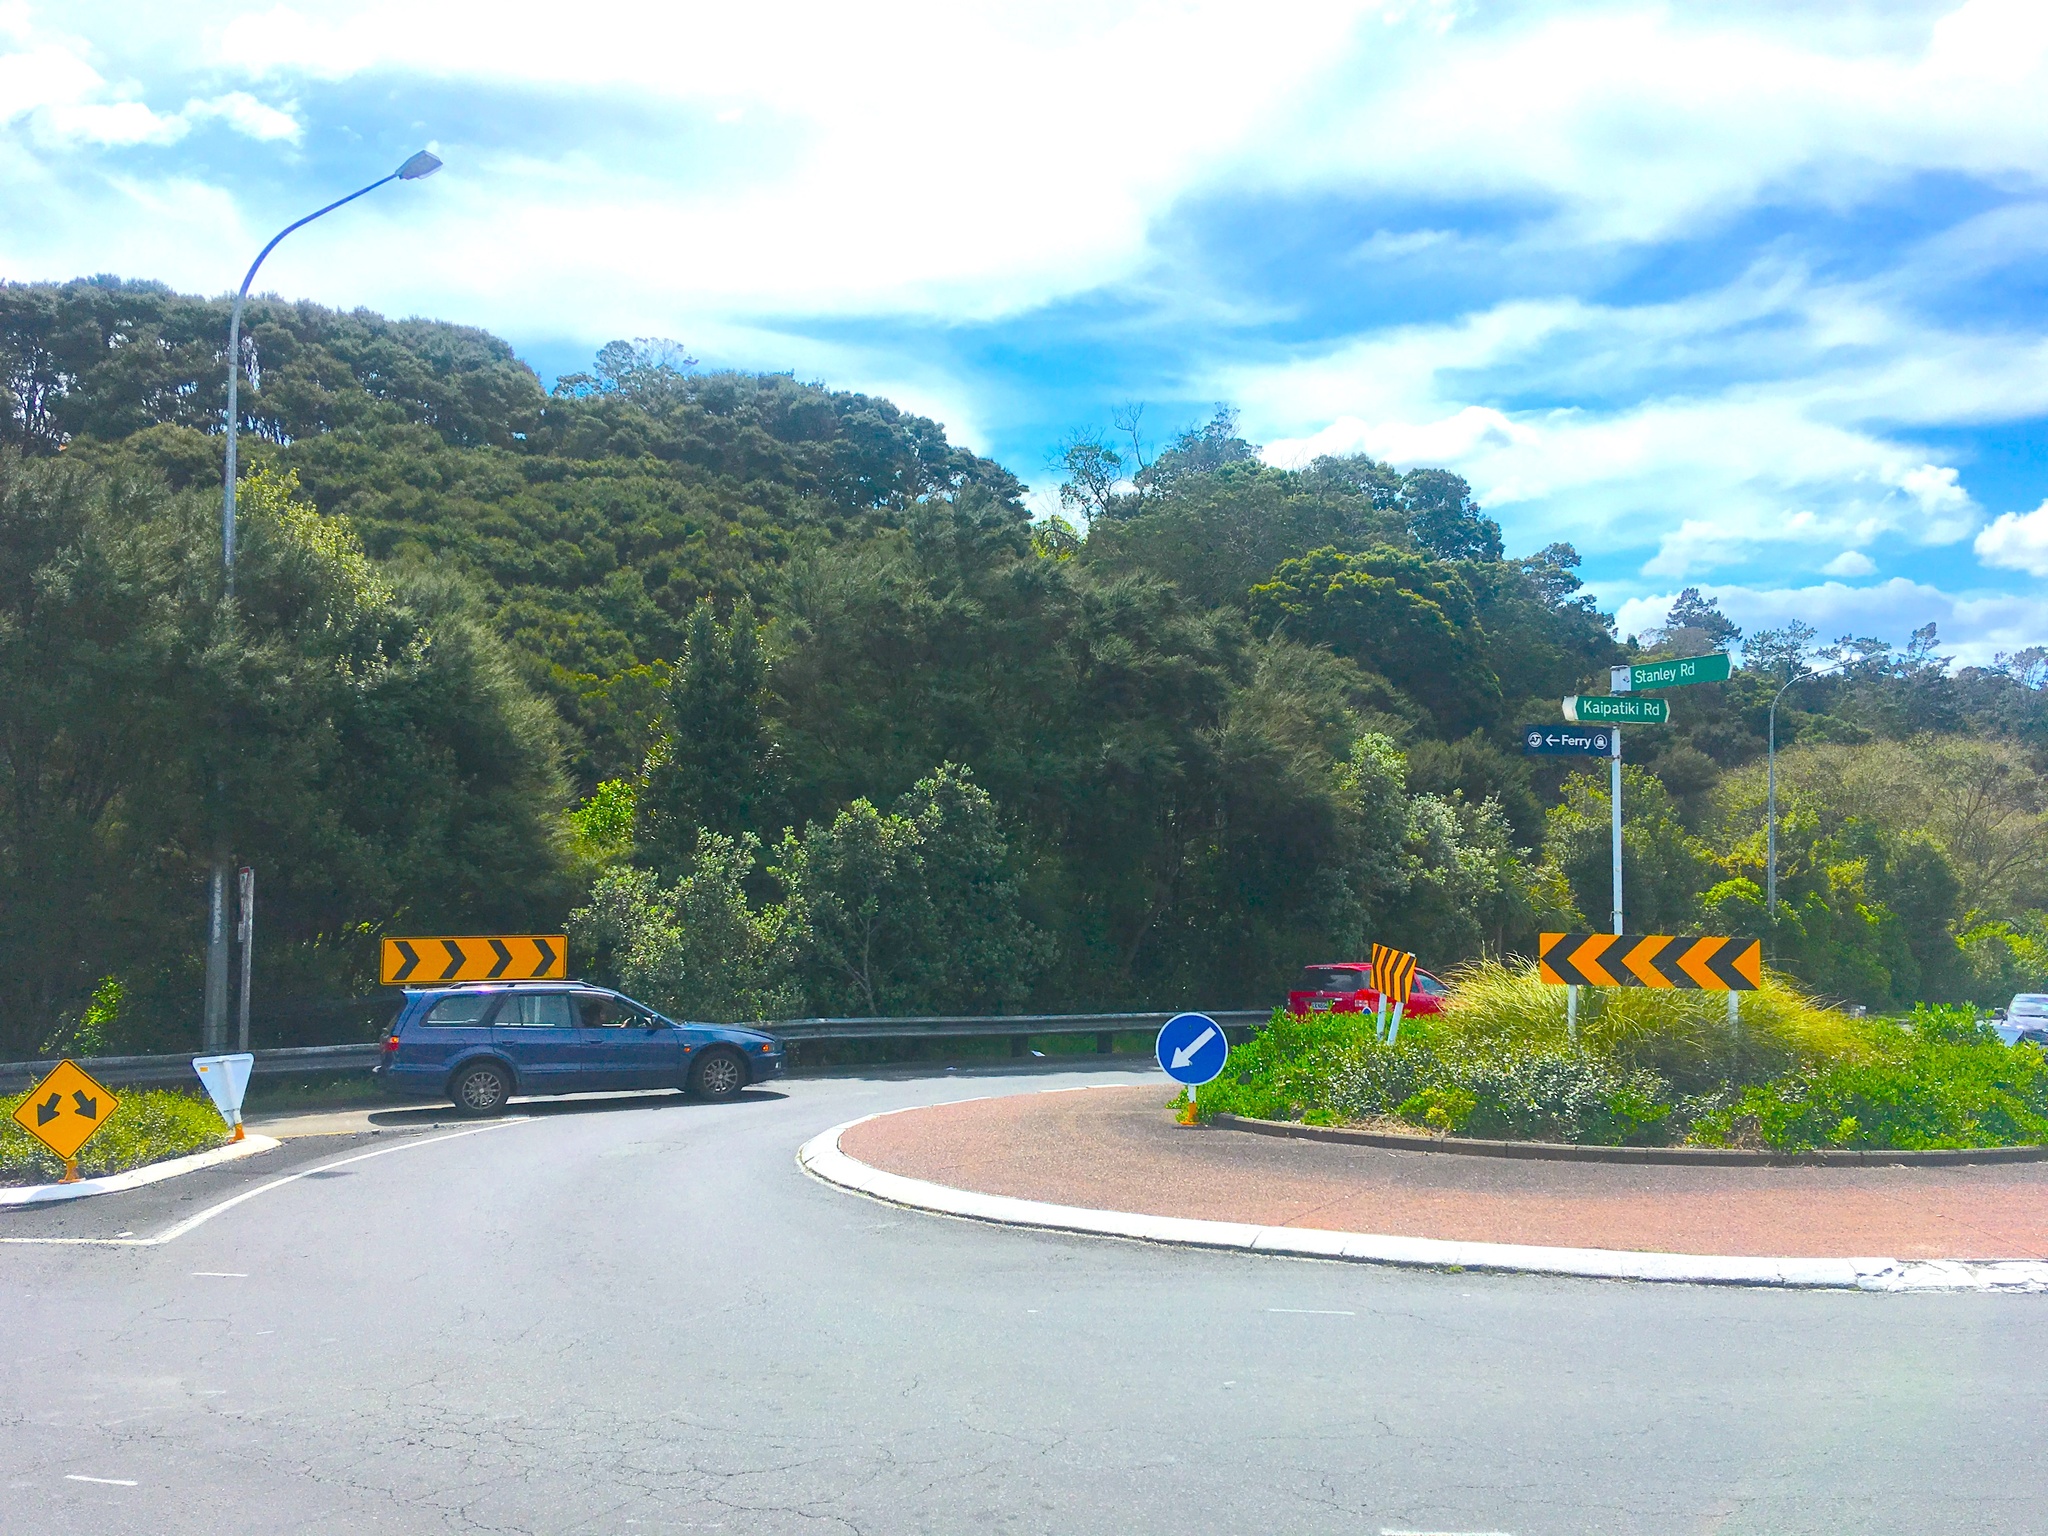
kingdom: Plantae
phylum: Tracheophyta
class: Magnoliopsida
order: Proteales
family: Proteaceae
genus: Knightia
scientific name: Knightia excelsa
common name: New zealand-honeysuckle
